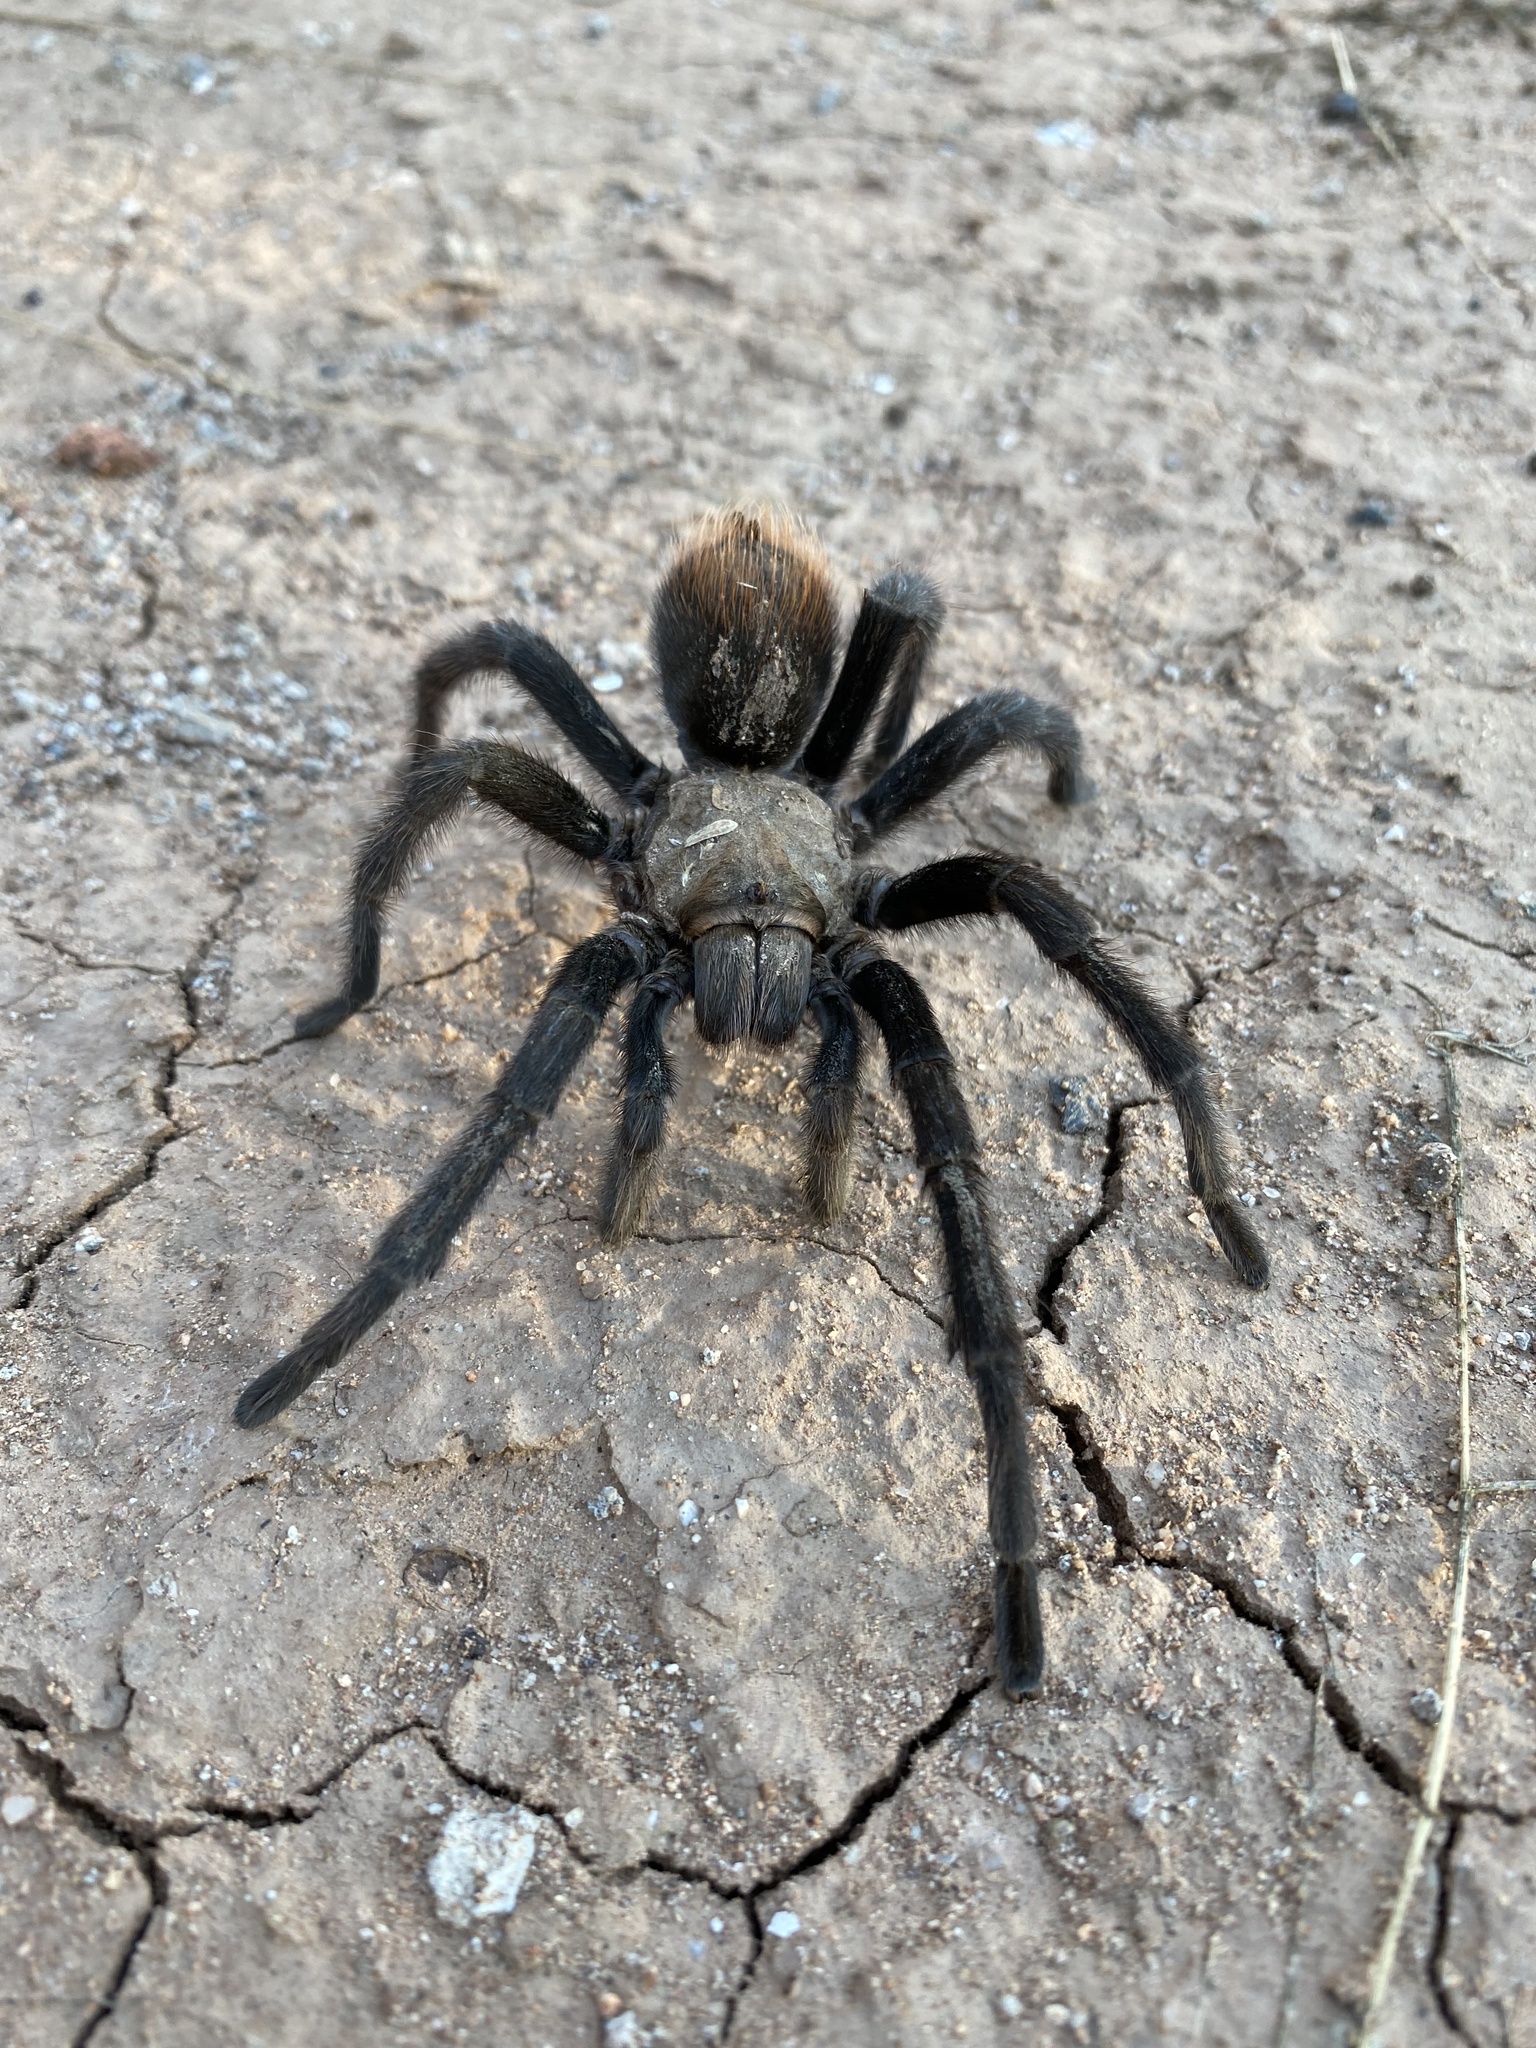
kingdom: Animalia
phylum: Arthropoda
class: Arachnida
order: Araneae
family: Theraphosidae
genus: Aphonopelma
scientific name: Aphonopelma vorhiesi
